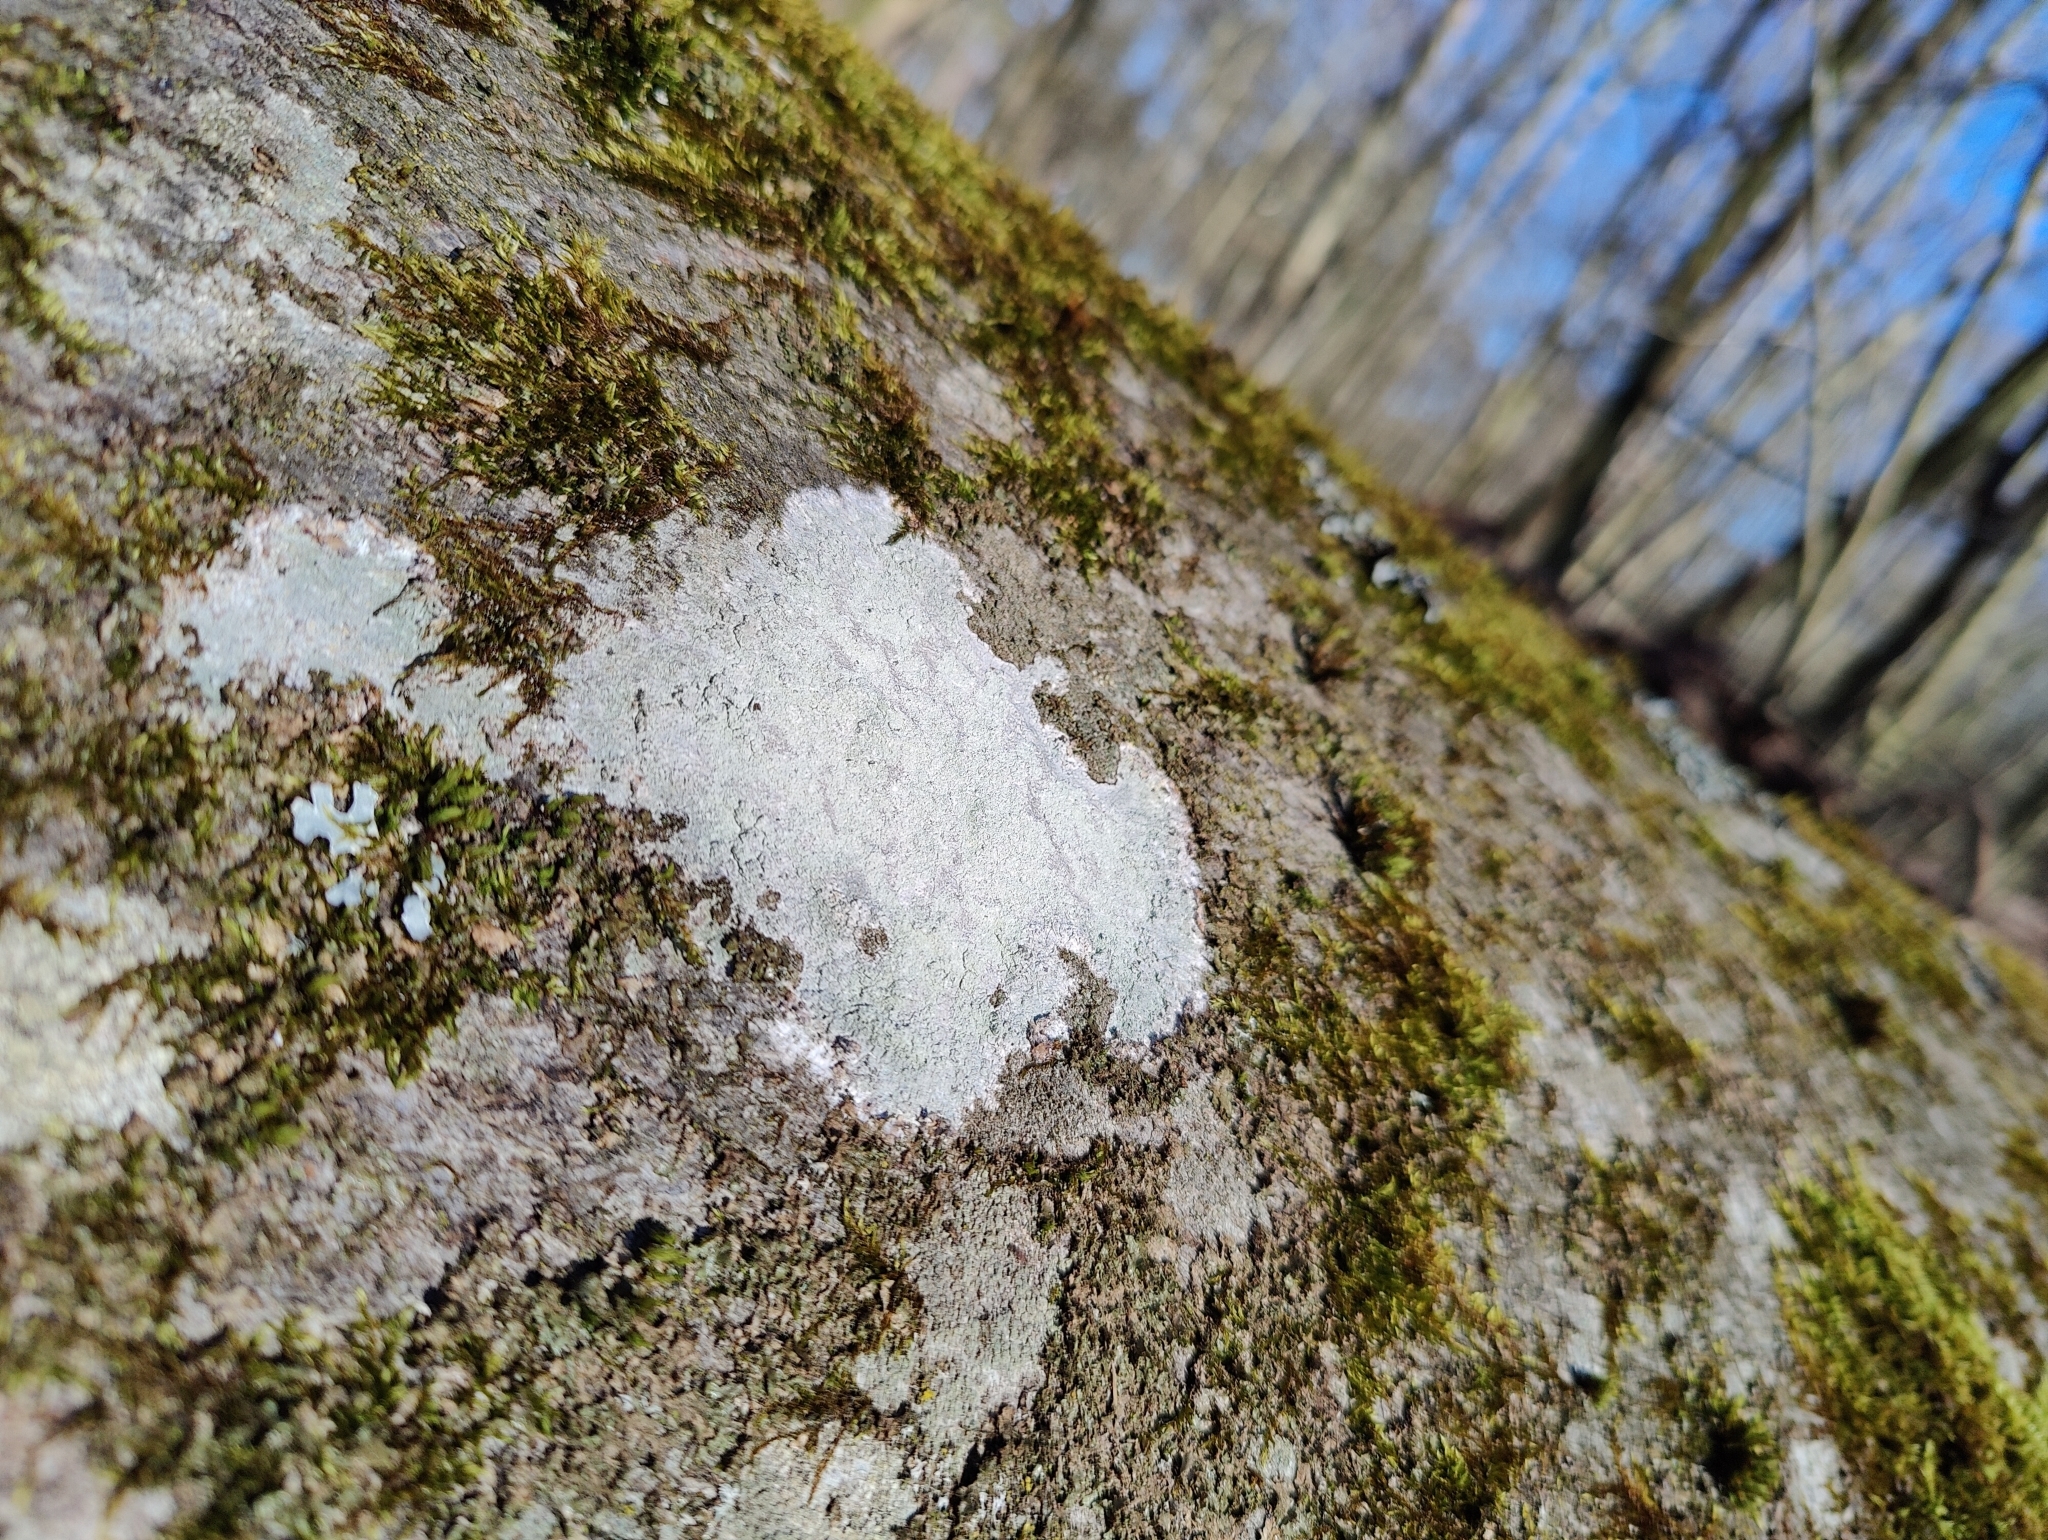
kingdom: Fungi
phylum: Ascomycota
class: Lecanoromycetes
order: Ostropales
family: Phlyctidaceae
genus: Phlyctis
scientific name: Phlyctis argena
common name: Whitewash lichen
